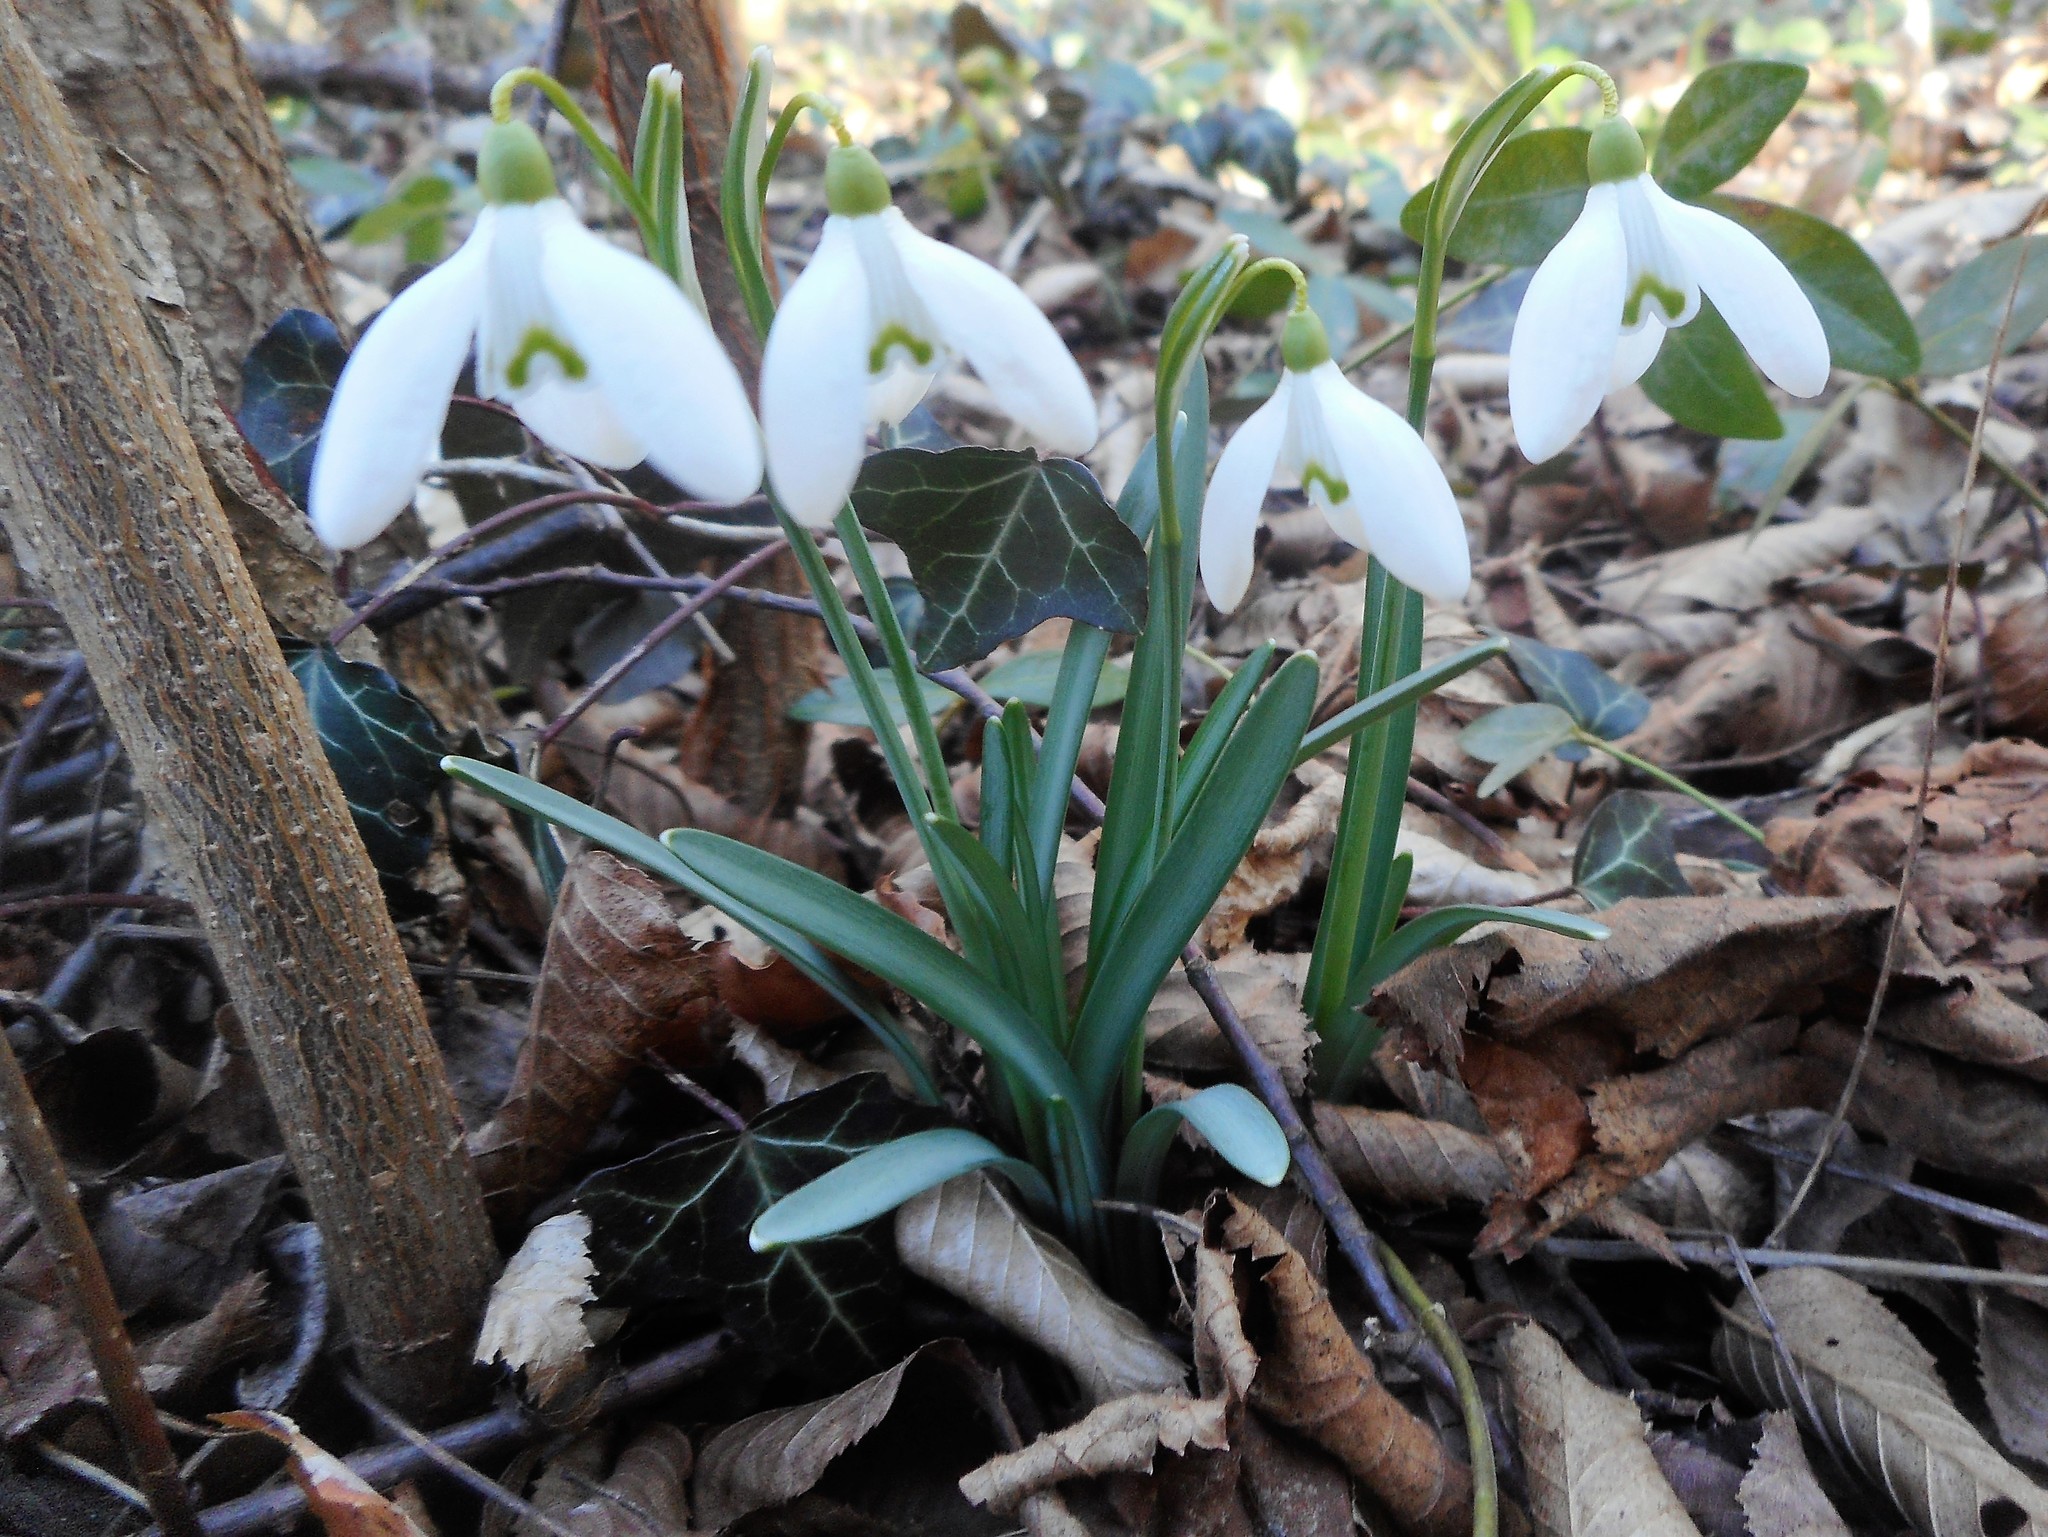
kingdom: Plantae
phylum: Tracheophyta
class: Liliopsida
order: Asparagales
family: Amaryllidaceae
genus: Galanthus
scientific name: Galanthus nivalis
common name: Snowdrop
